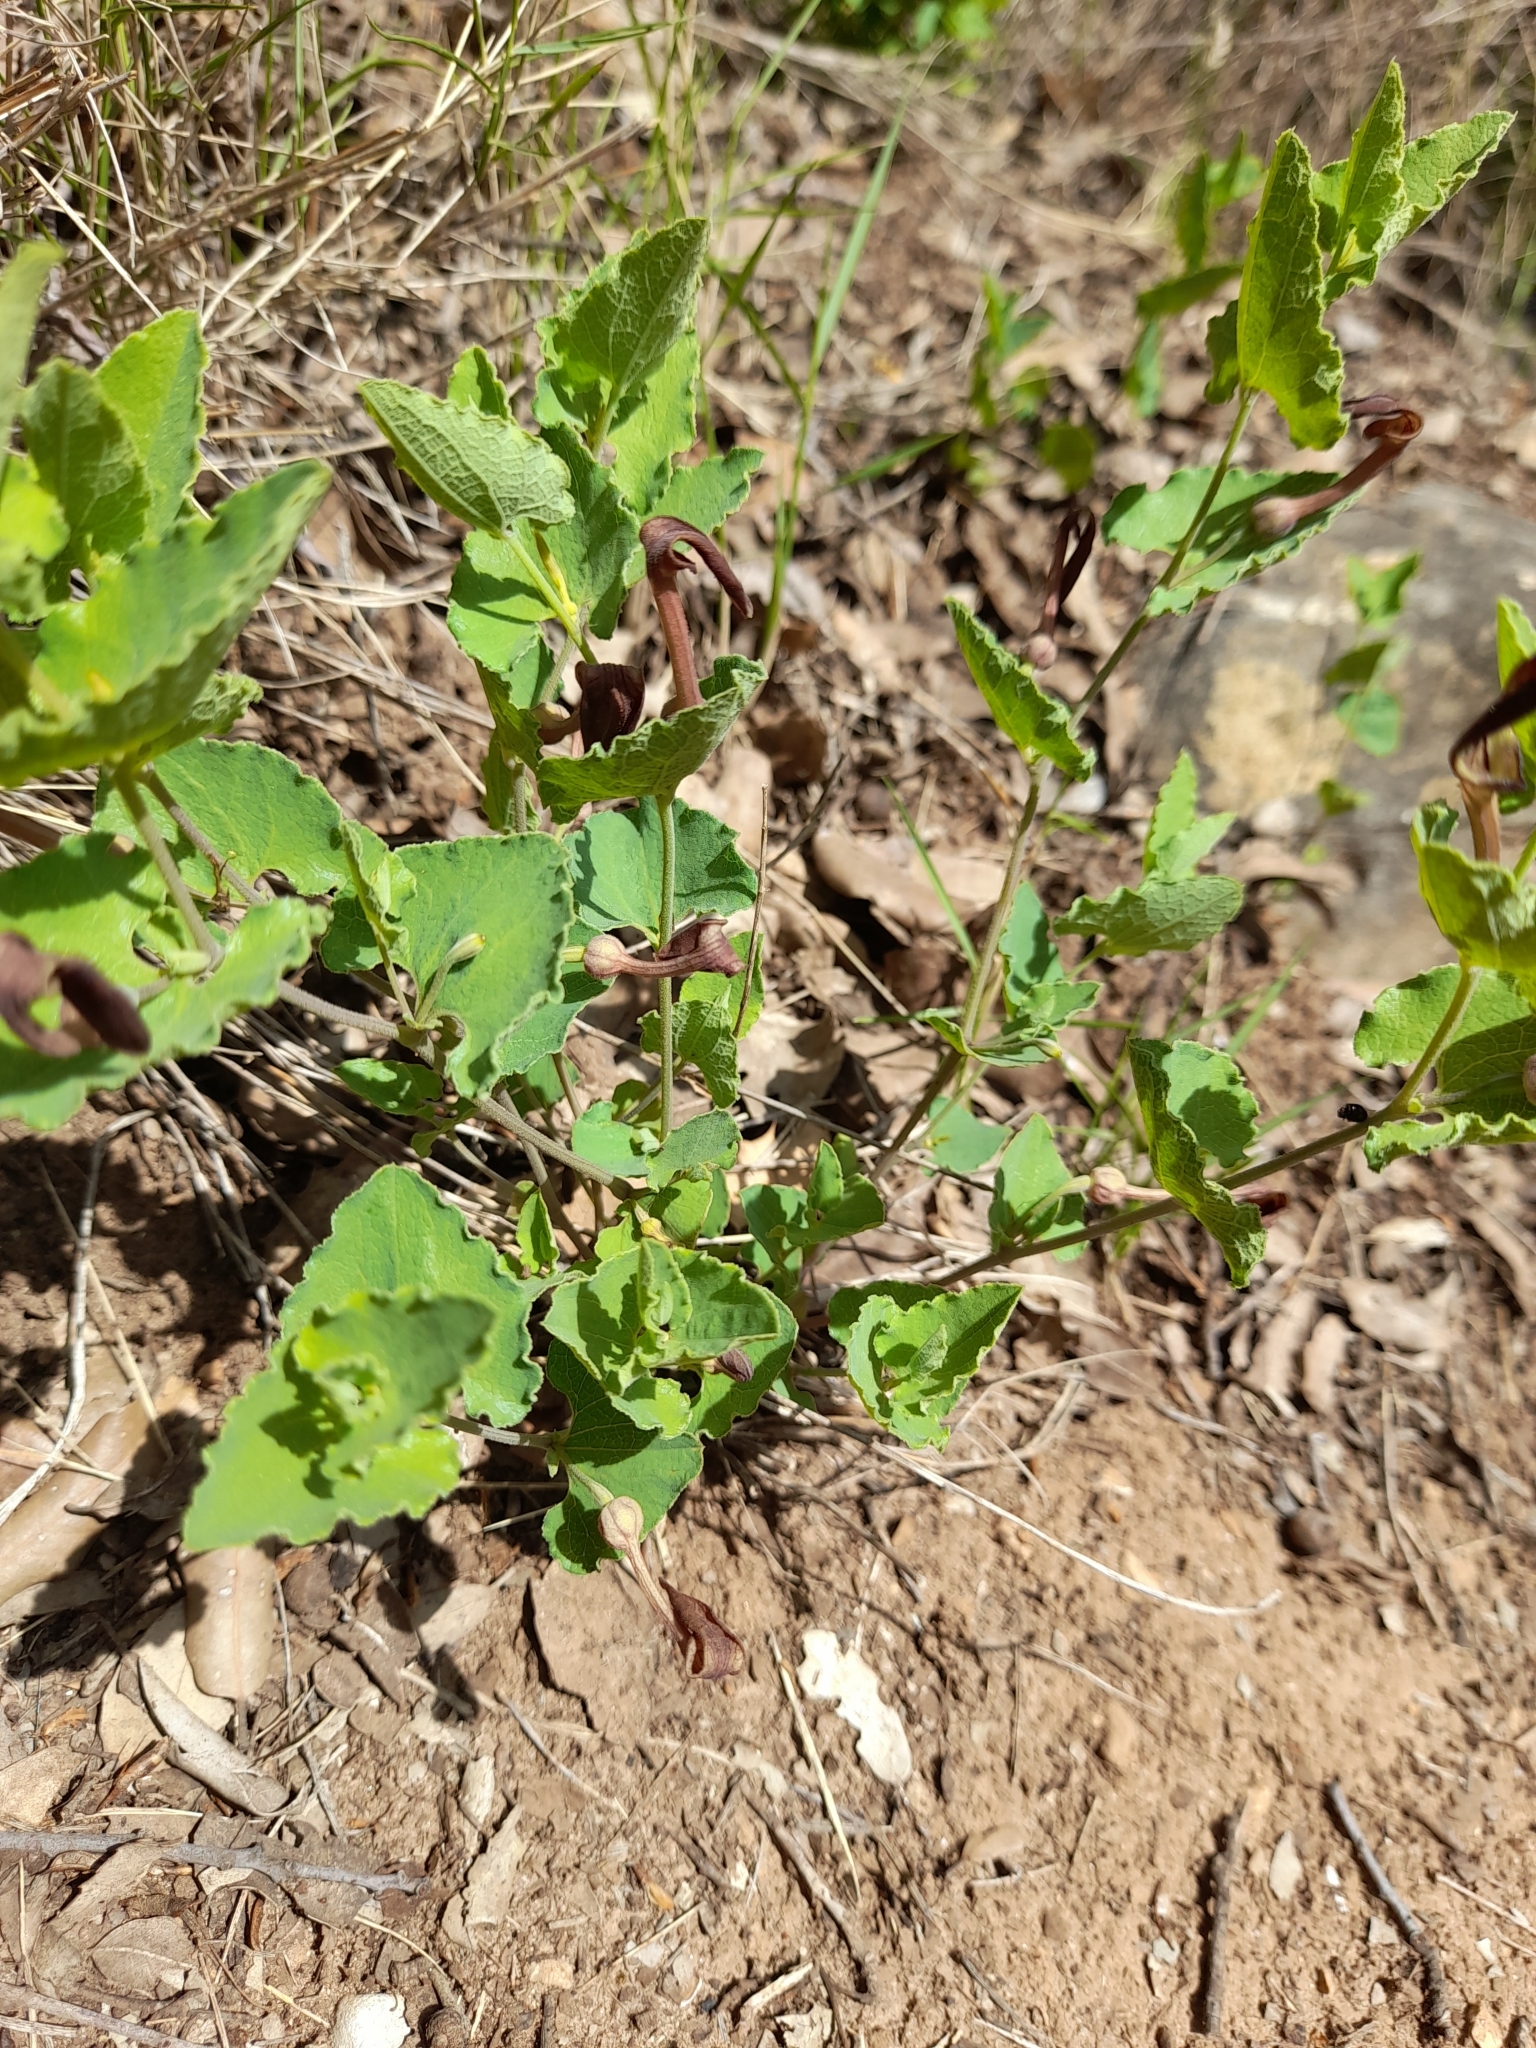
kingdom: Plantae
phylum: Tracheophyta
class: Magnoliopsida
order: Piperales
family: Aristolochiaceae
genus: Aristolochia
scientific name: Aristolochia pistolochia
